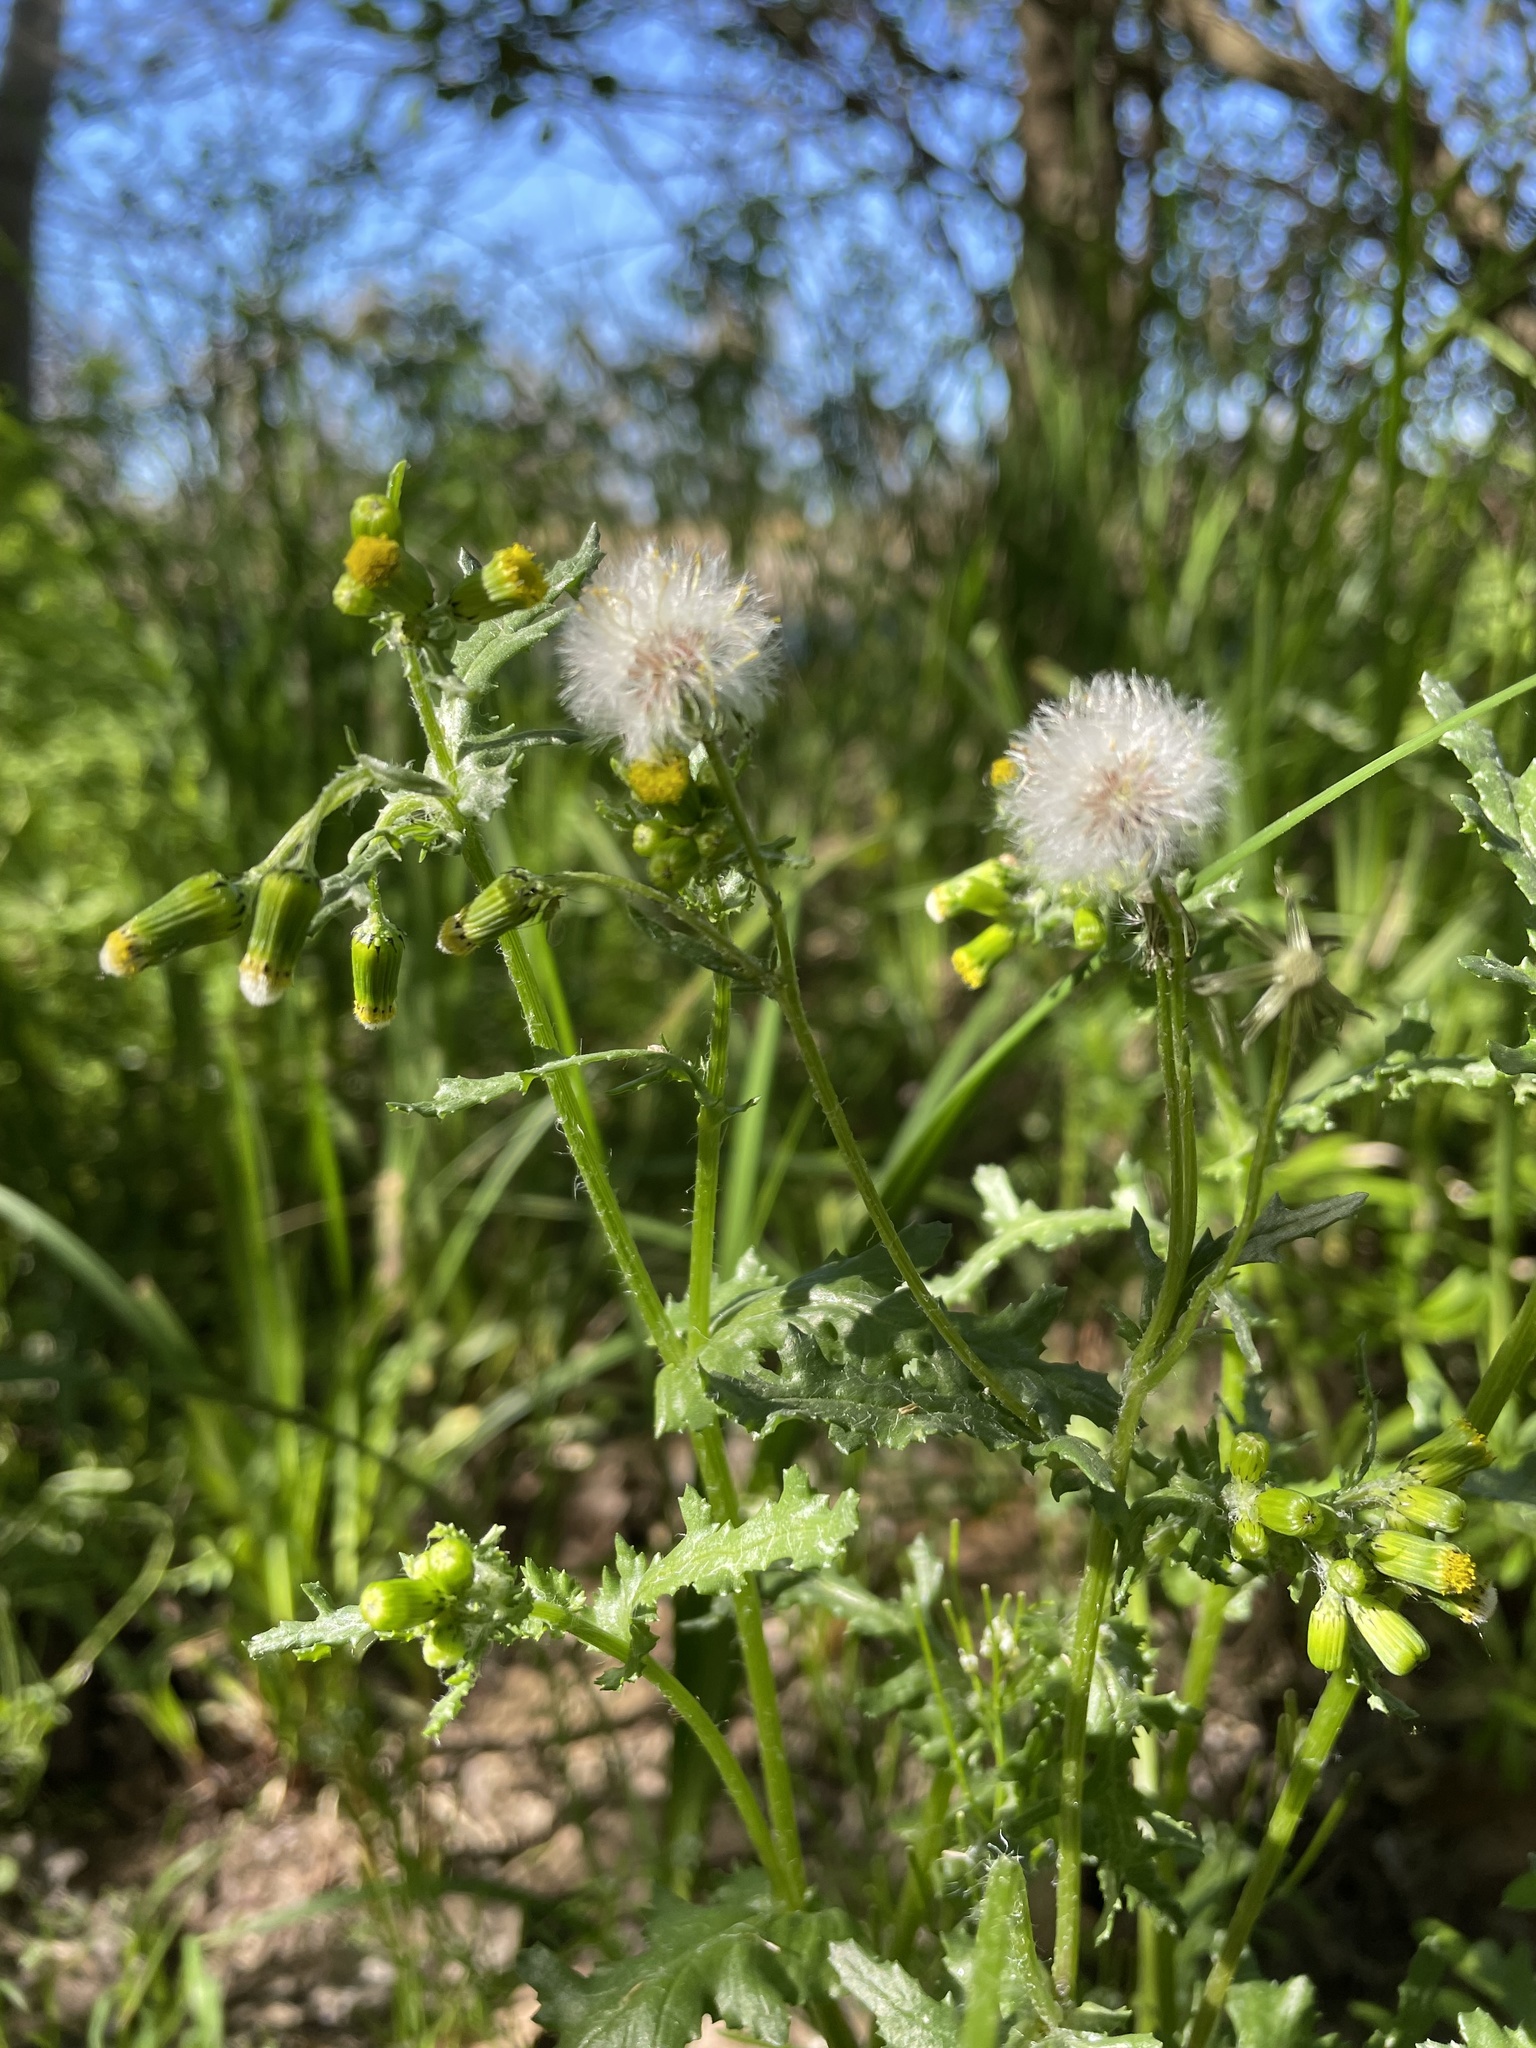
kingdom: Plantae
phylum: Tracheophyta
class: Magnoliopsida
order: Asterales
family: Asteraceae
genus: Senecio
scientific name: Senecio vulgaris
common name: Old-man-in-the-spring
